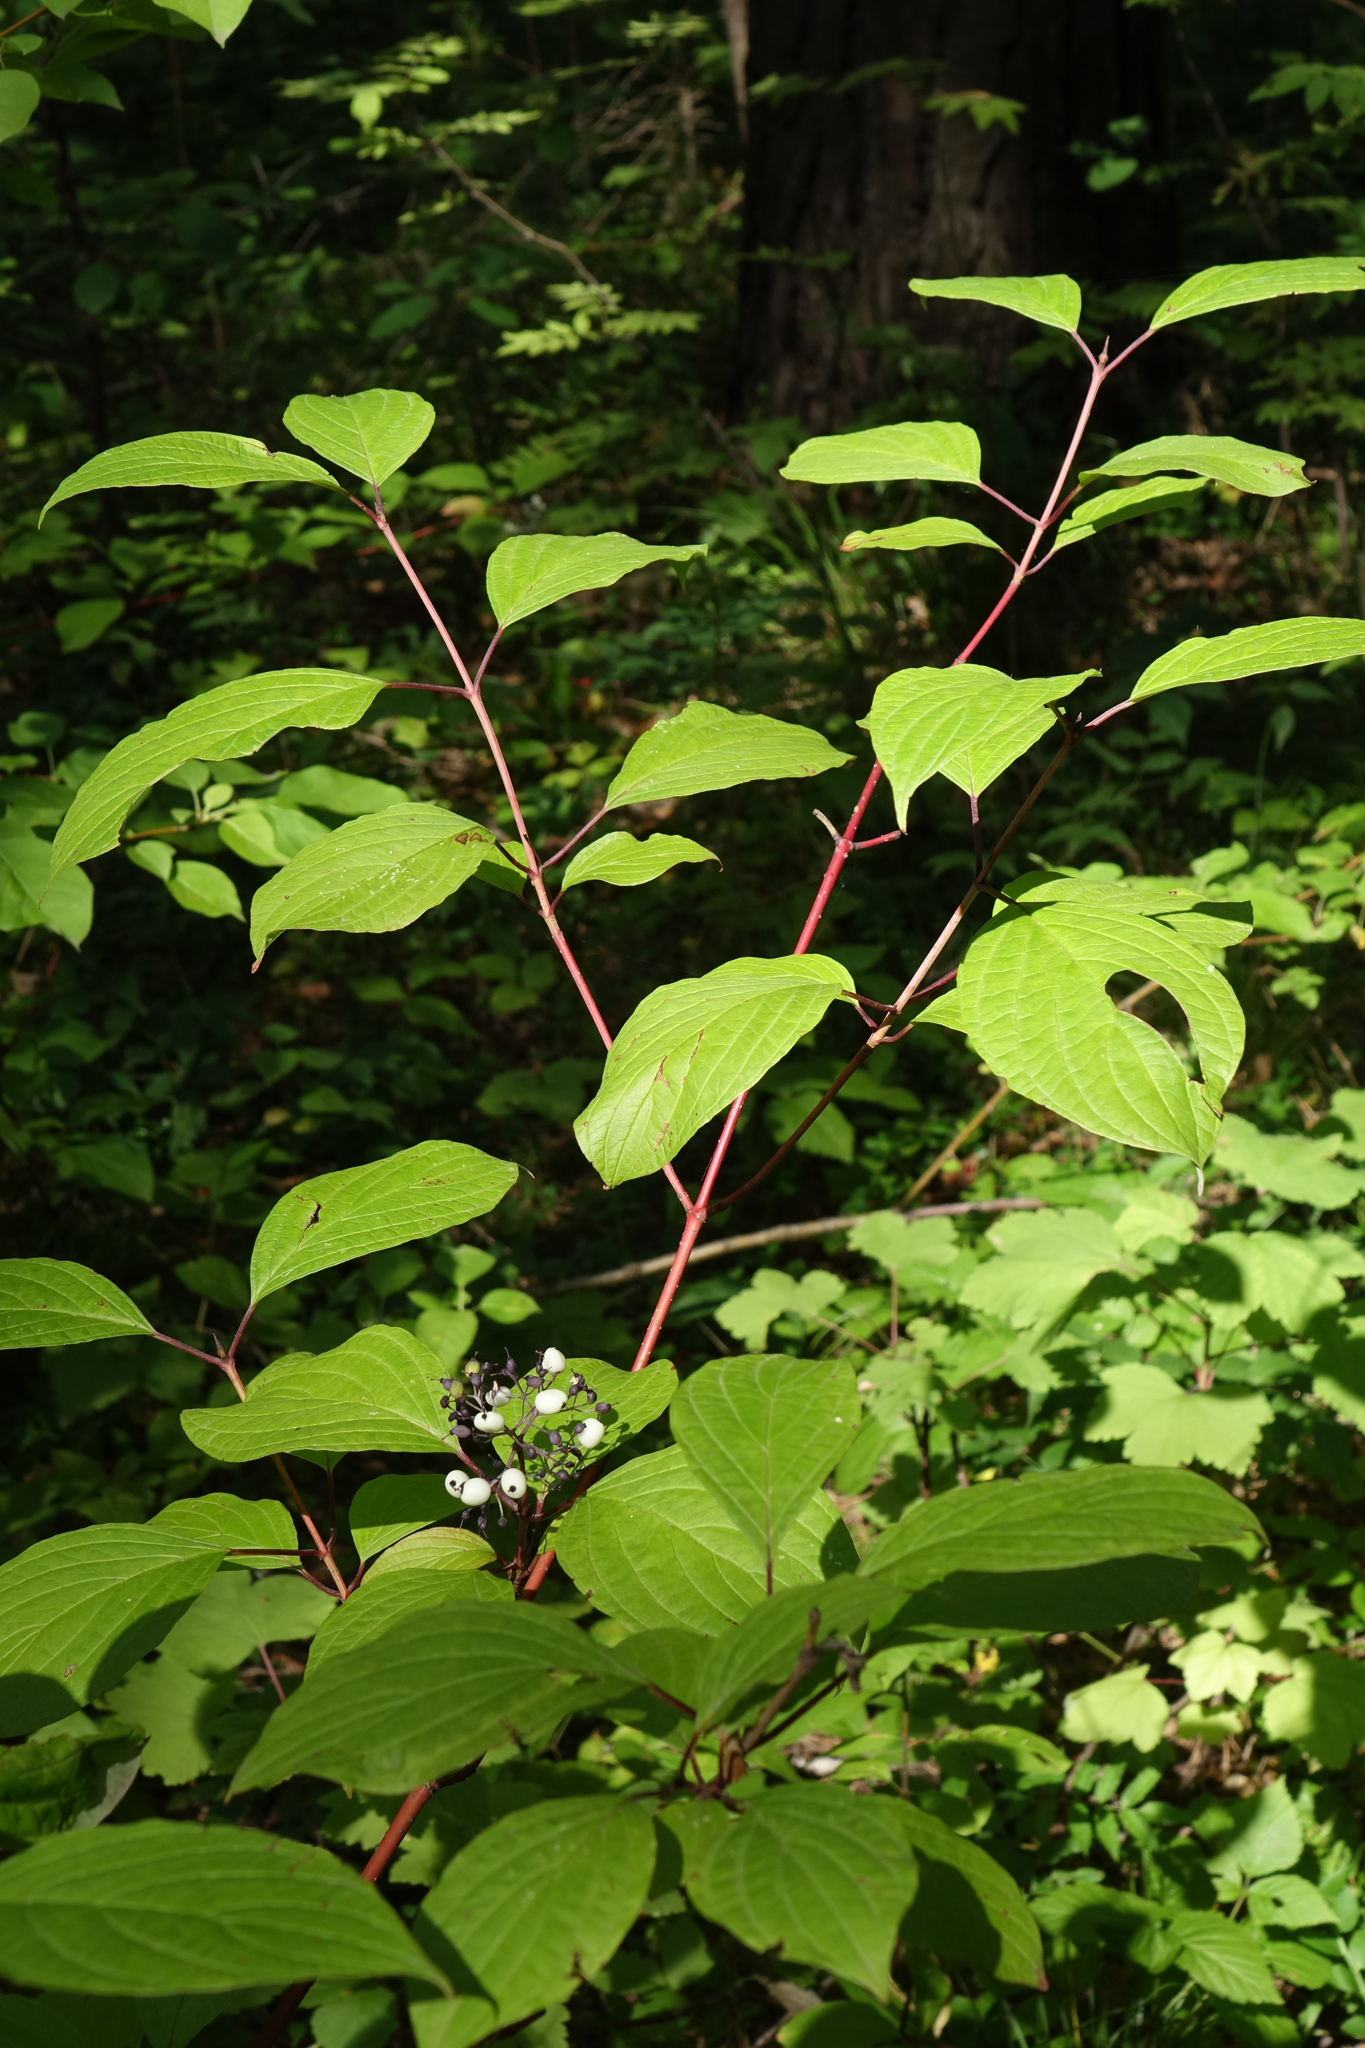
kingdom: Plantae
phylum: Tracheophyta
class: Magnoliopsida
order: Cornales
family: Cornaceae
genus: Cornus
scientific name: Cornus alba
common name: White dogwood
